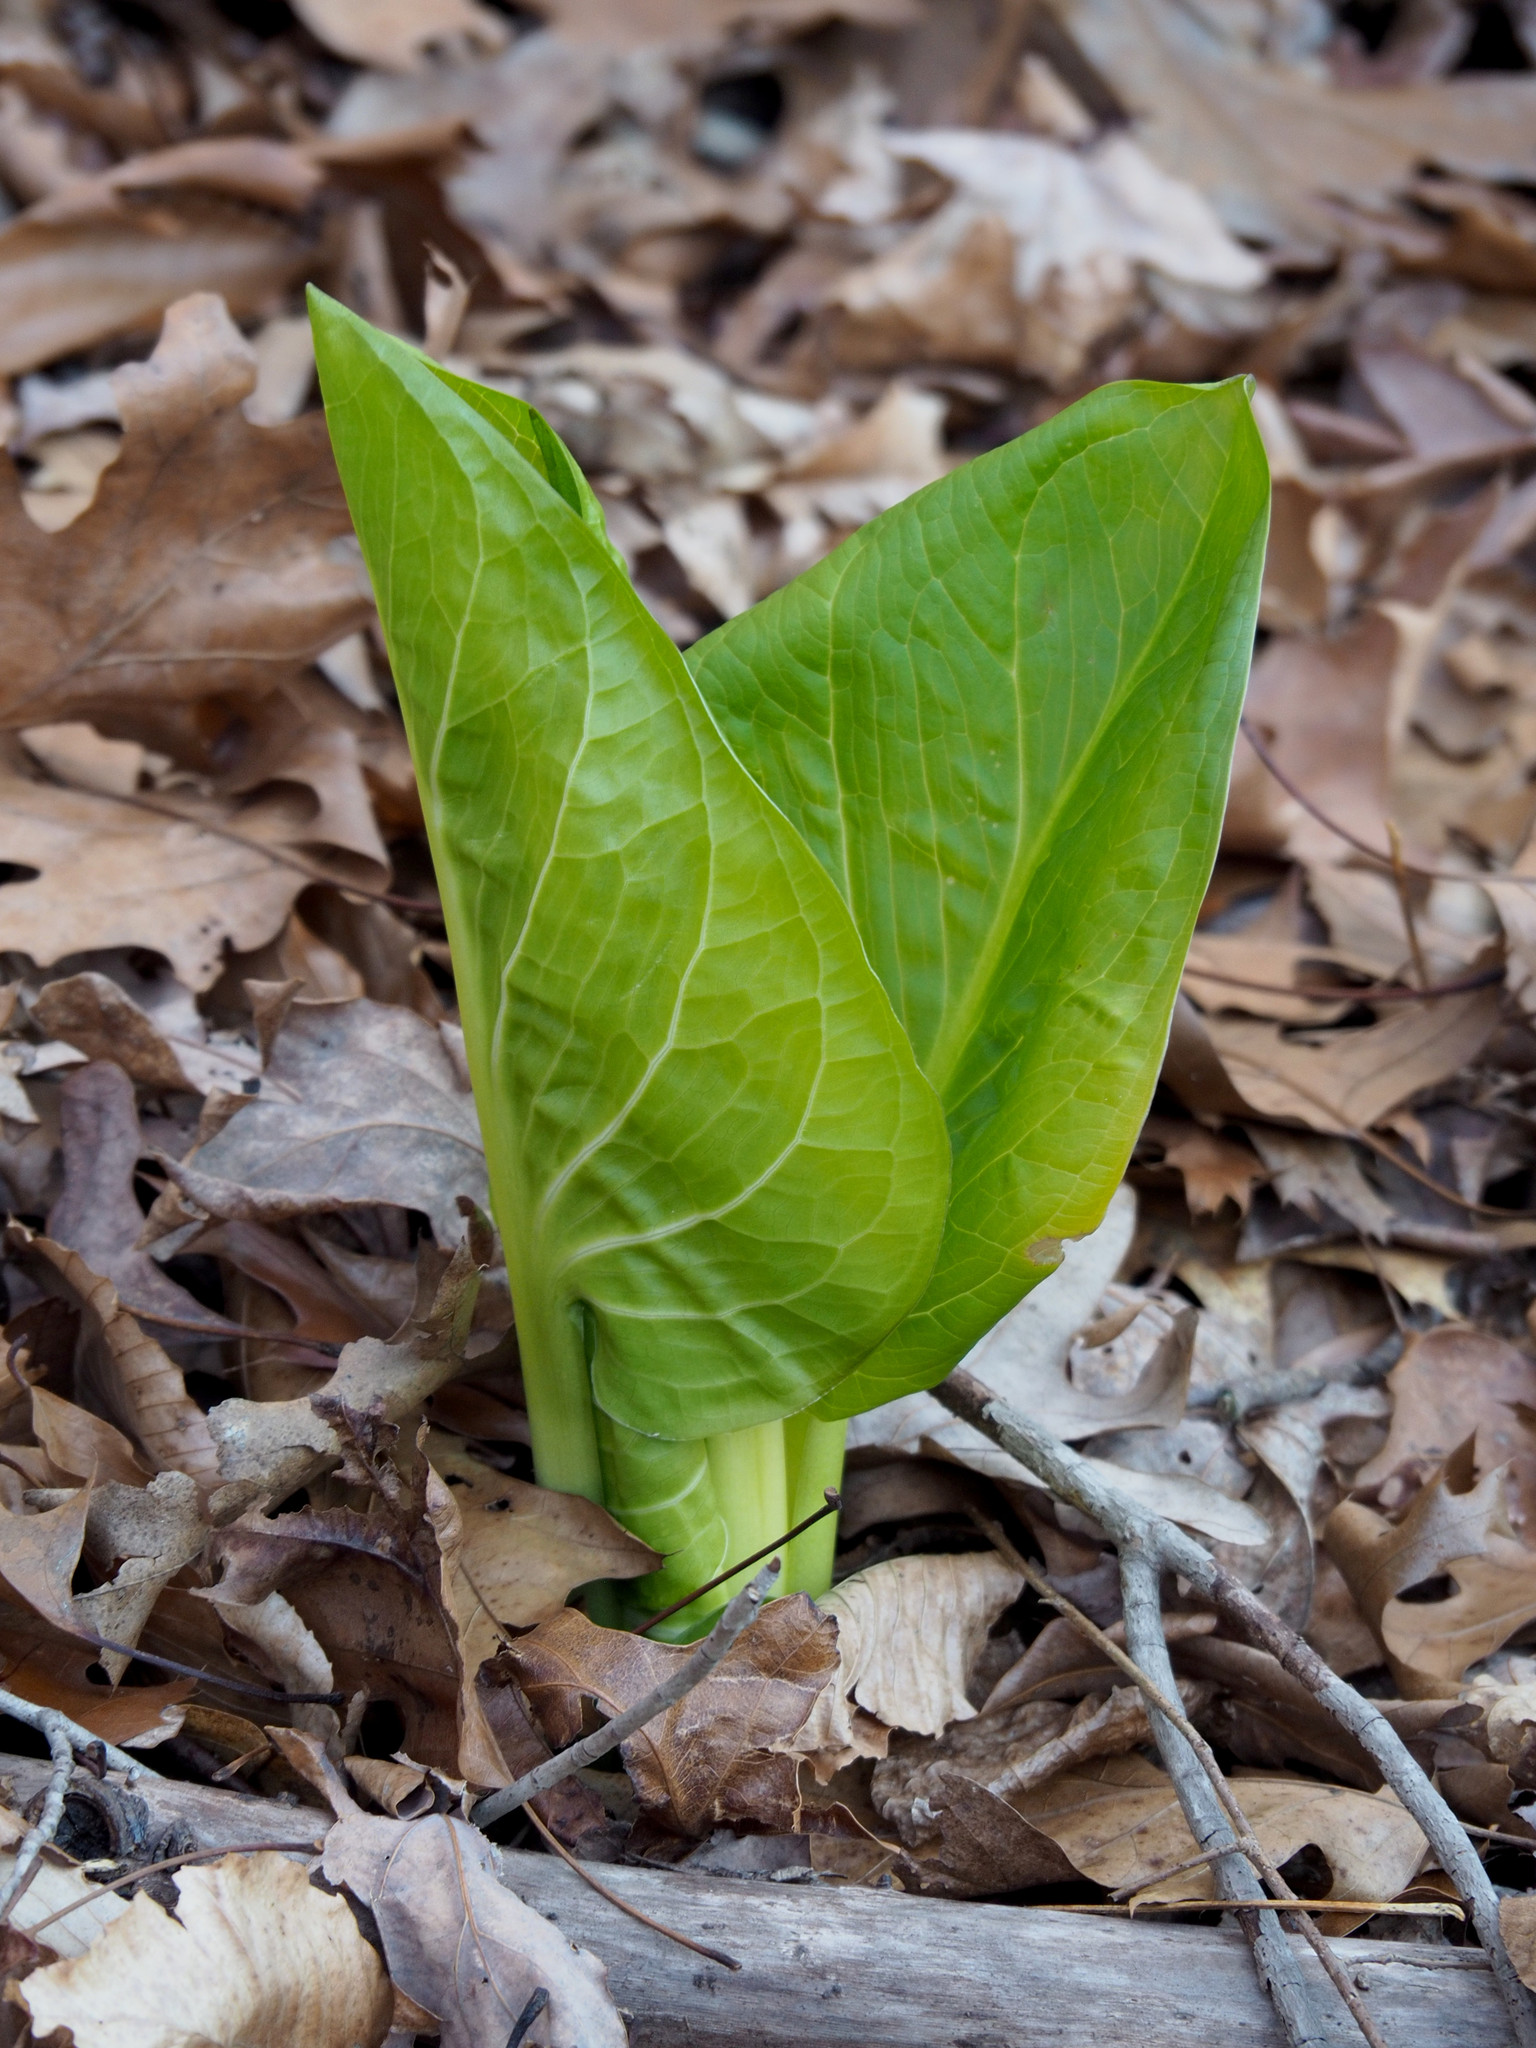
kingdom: Plantae
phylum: Tracheophyta
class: Liliopsida
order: Alismatales
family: Araceae
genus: Symplocarpus
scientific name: Symplocarpus foetidus
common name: Eastern skunk cabbage
